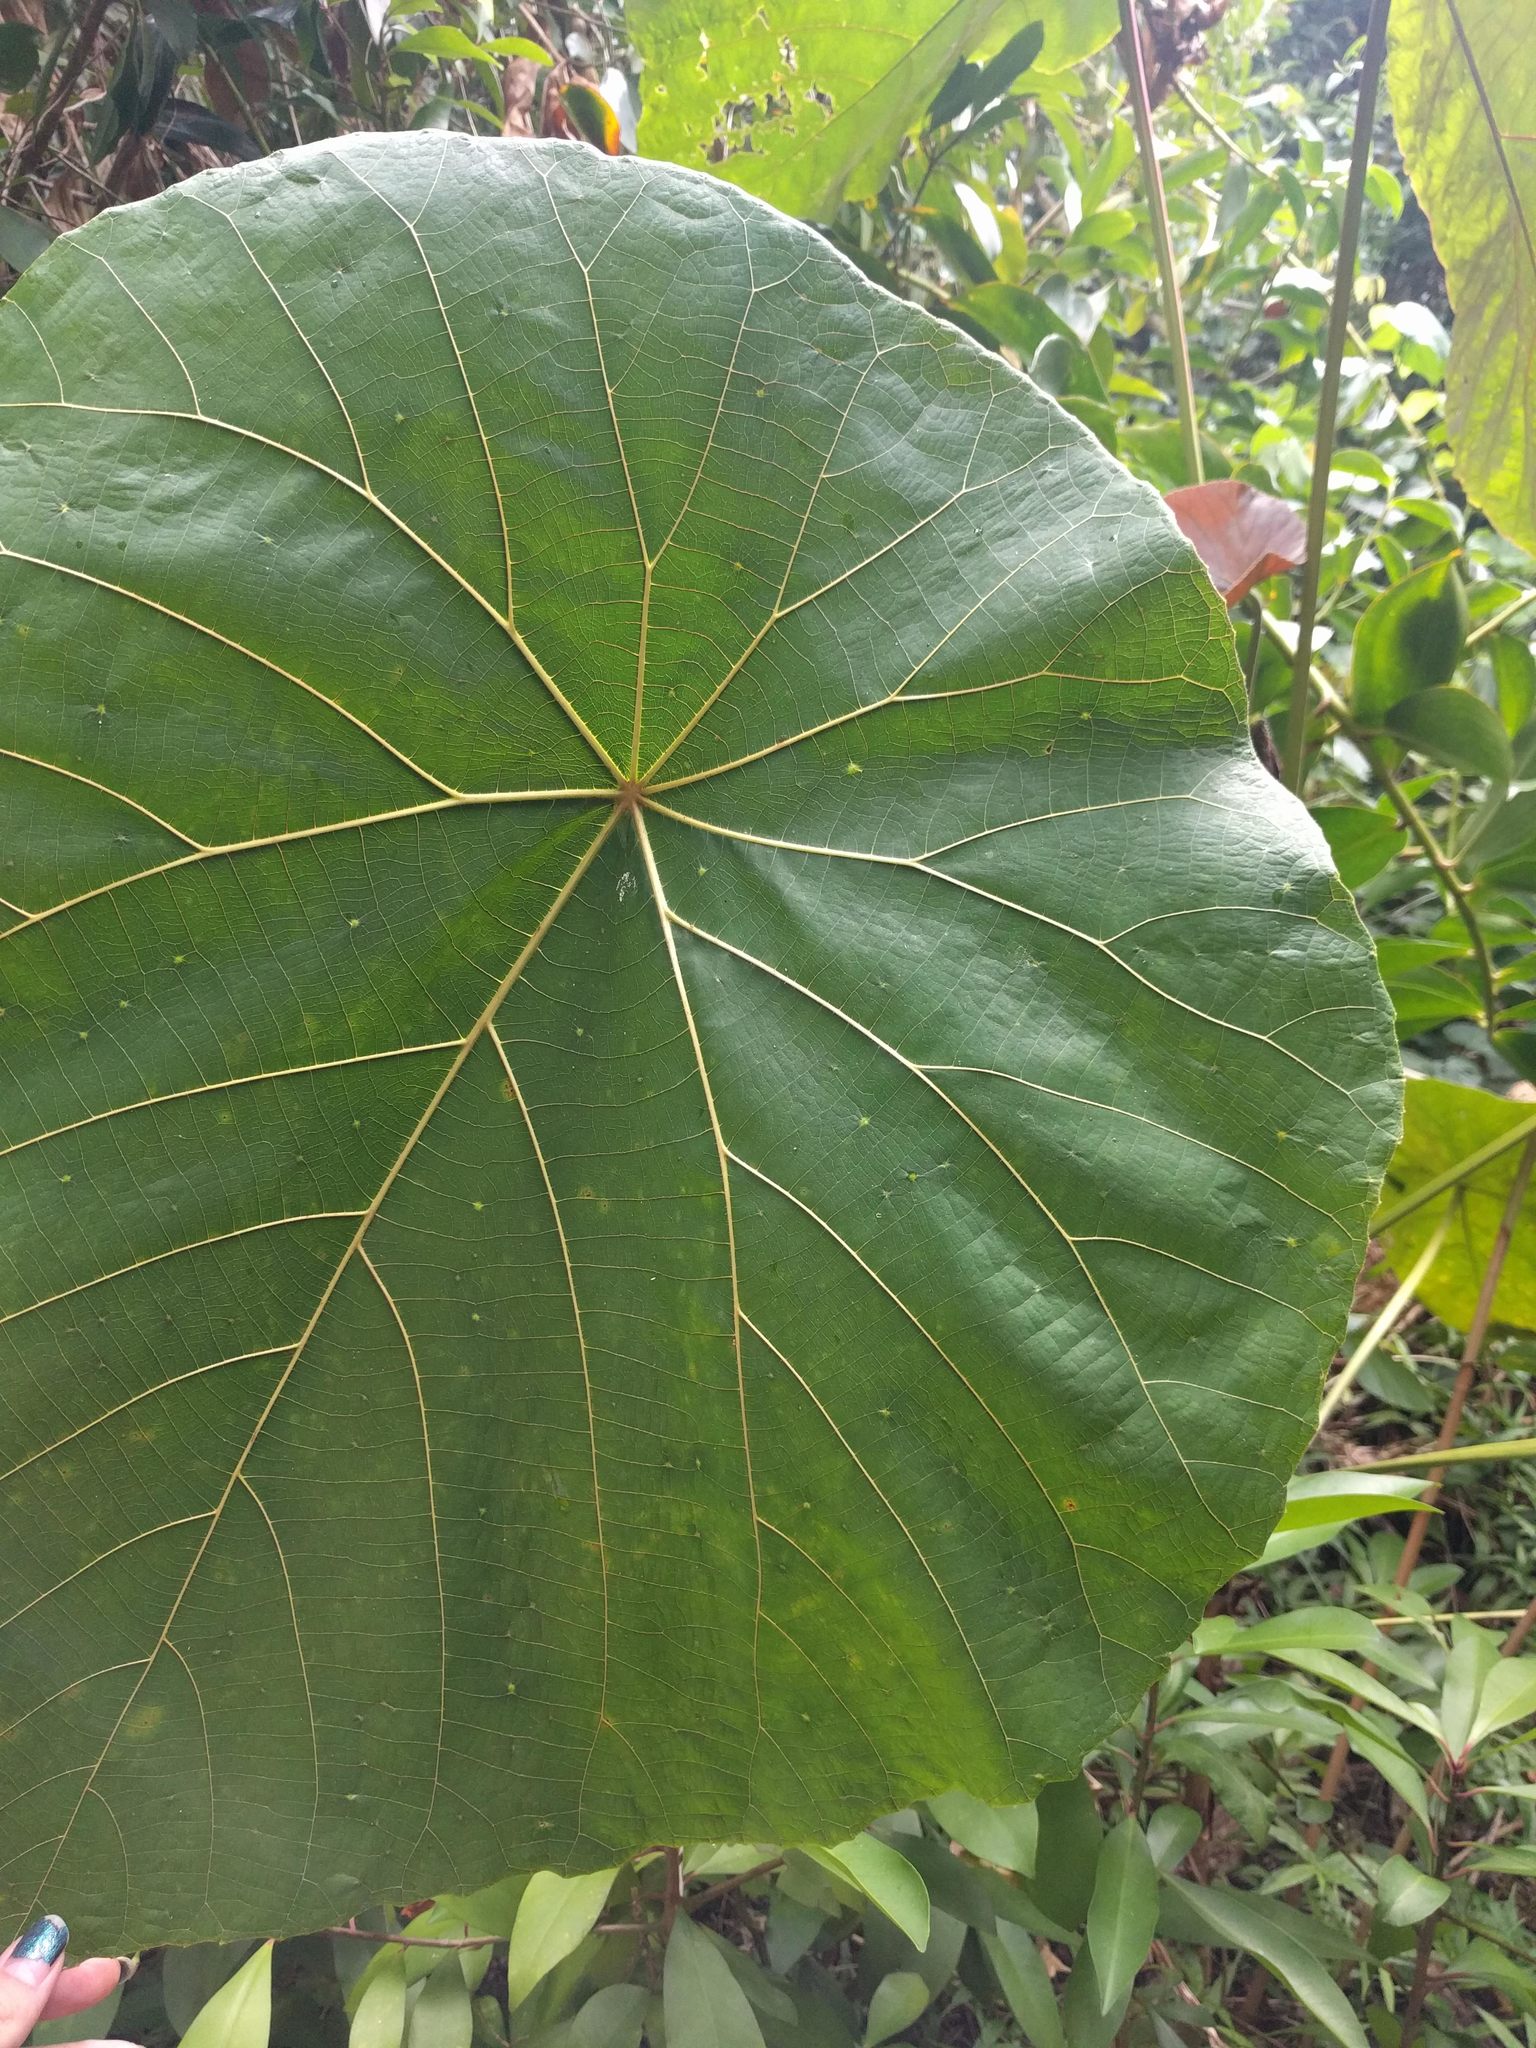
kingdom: Plantae
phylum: Tracheophyta
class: Magnoliopsida
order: Malpighiales
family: Euphorbiaceae
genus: Macaranga
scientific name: Macaranga mappa
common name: Pengua
